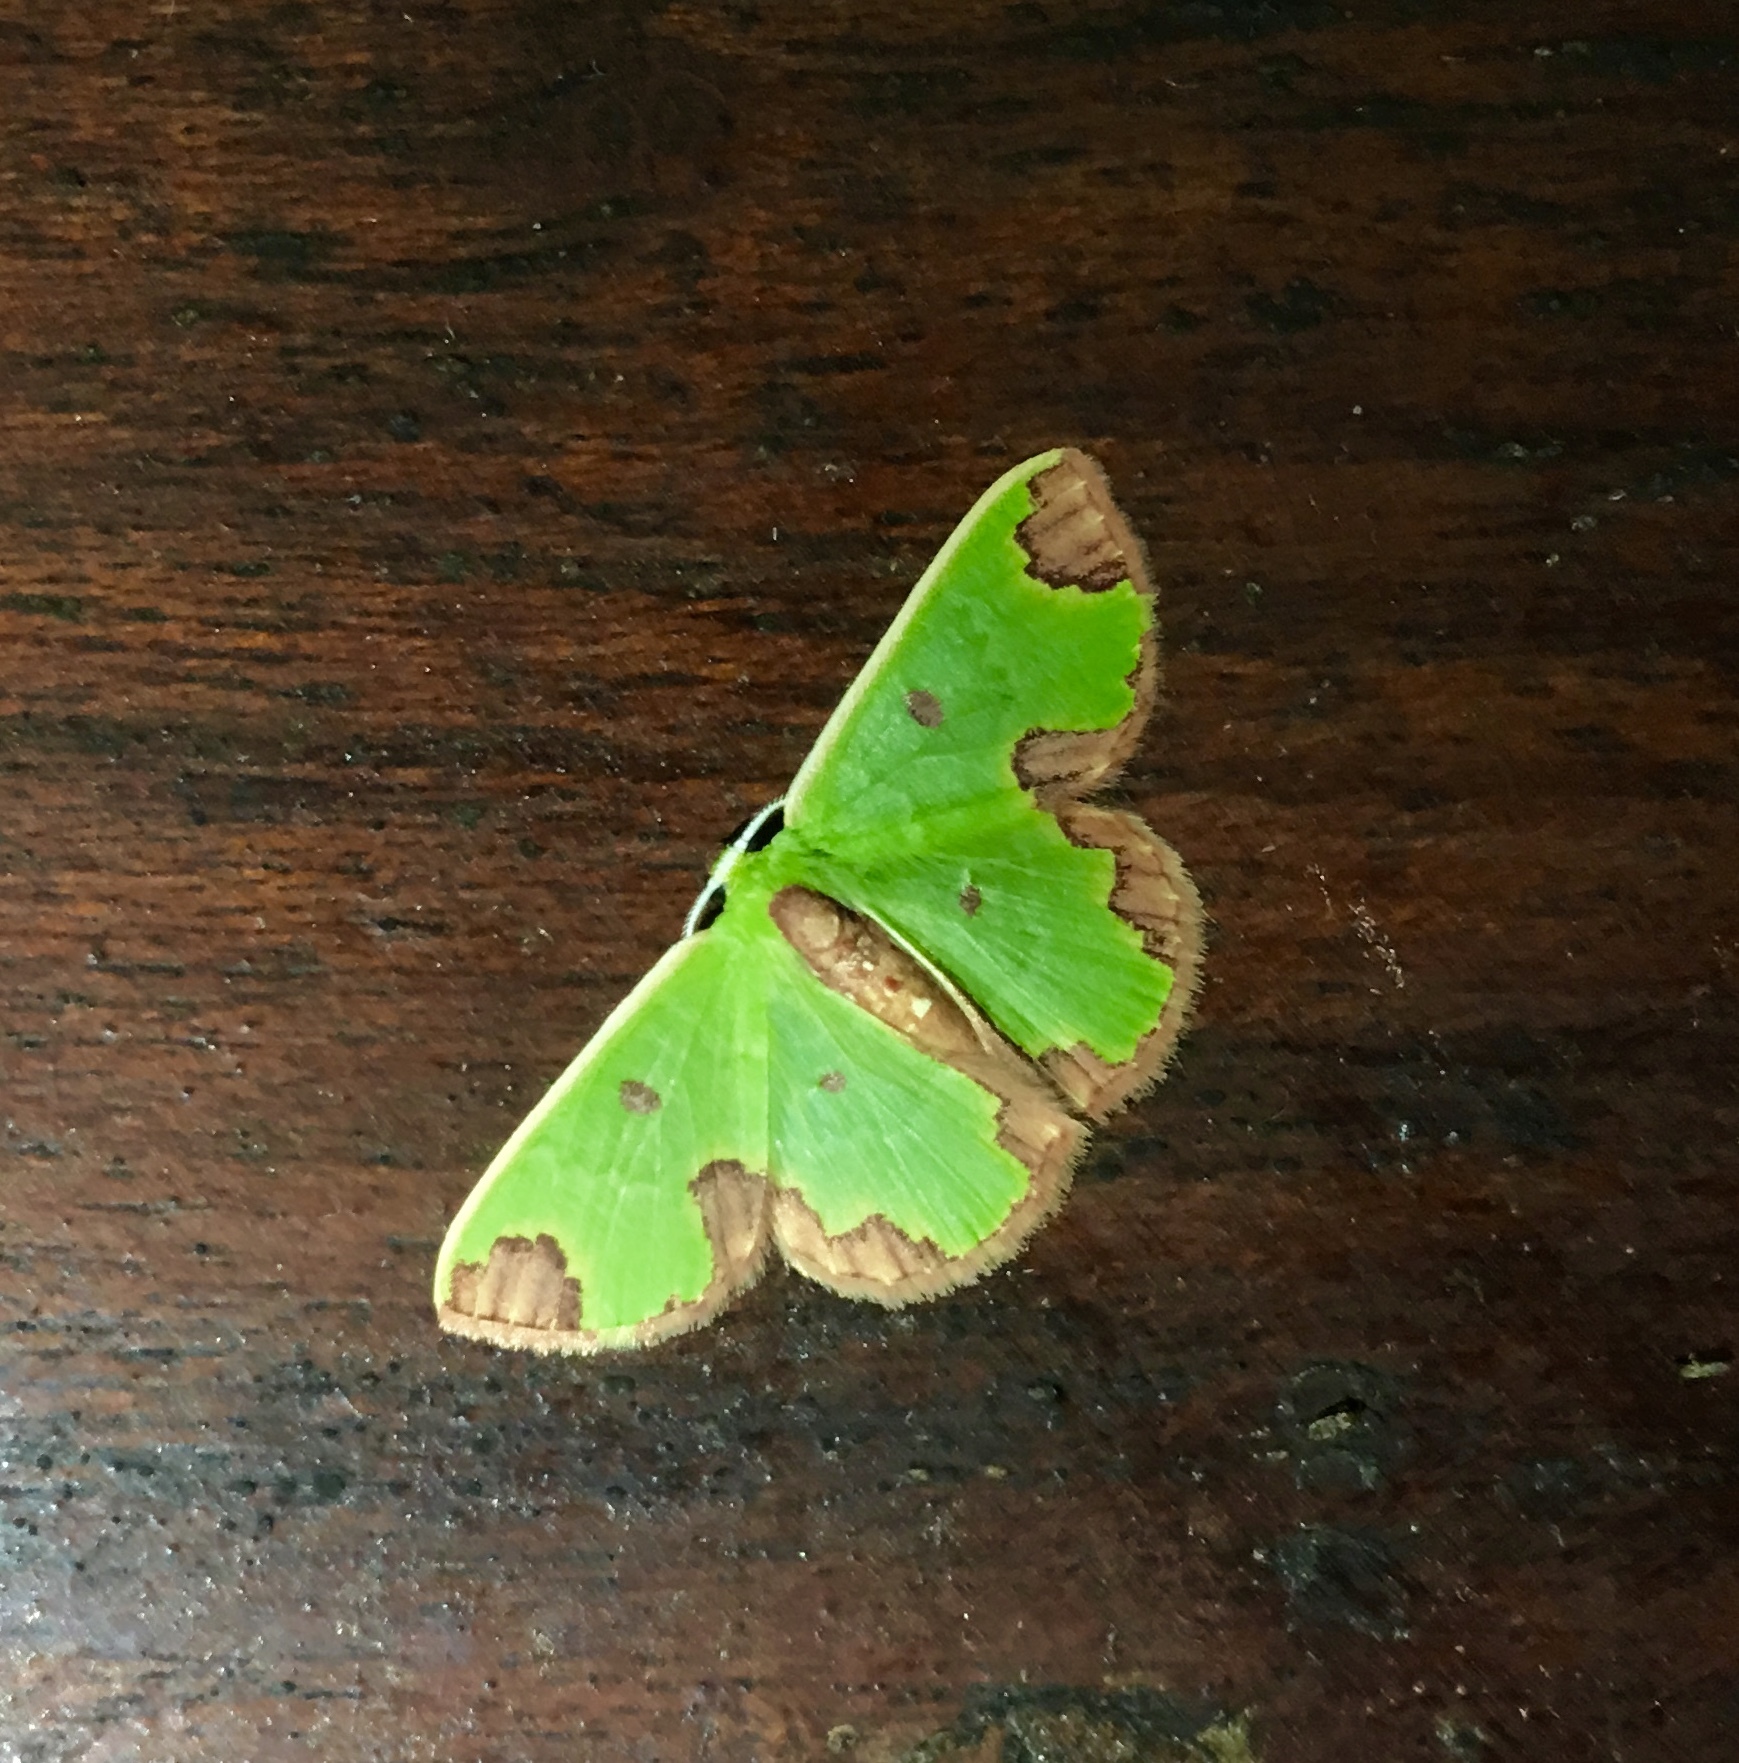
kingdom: Animalia
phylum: Arthropoda
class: Insecta
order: Lepidoptera
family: Geometridae
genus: Chavarriella
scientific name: Chavarriella porcius
